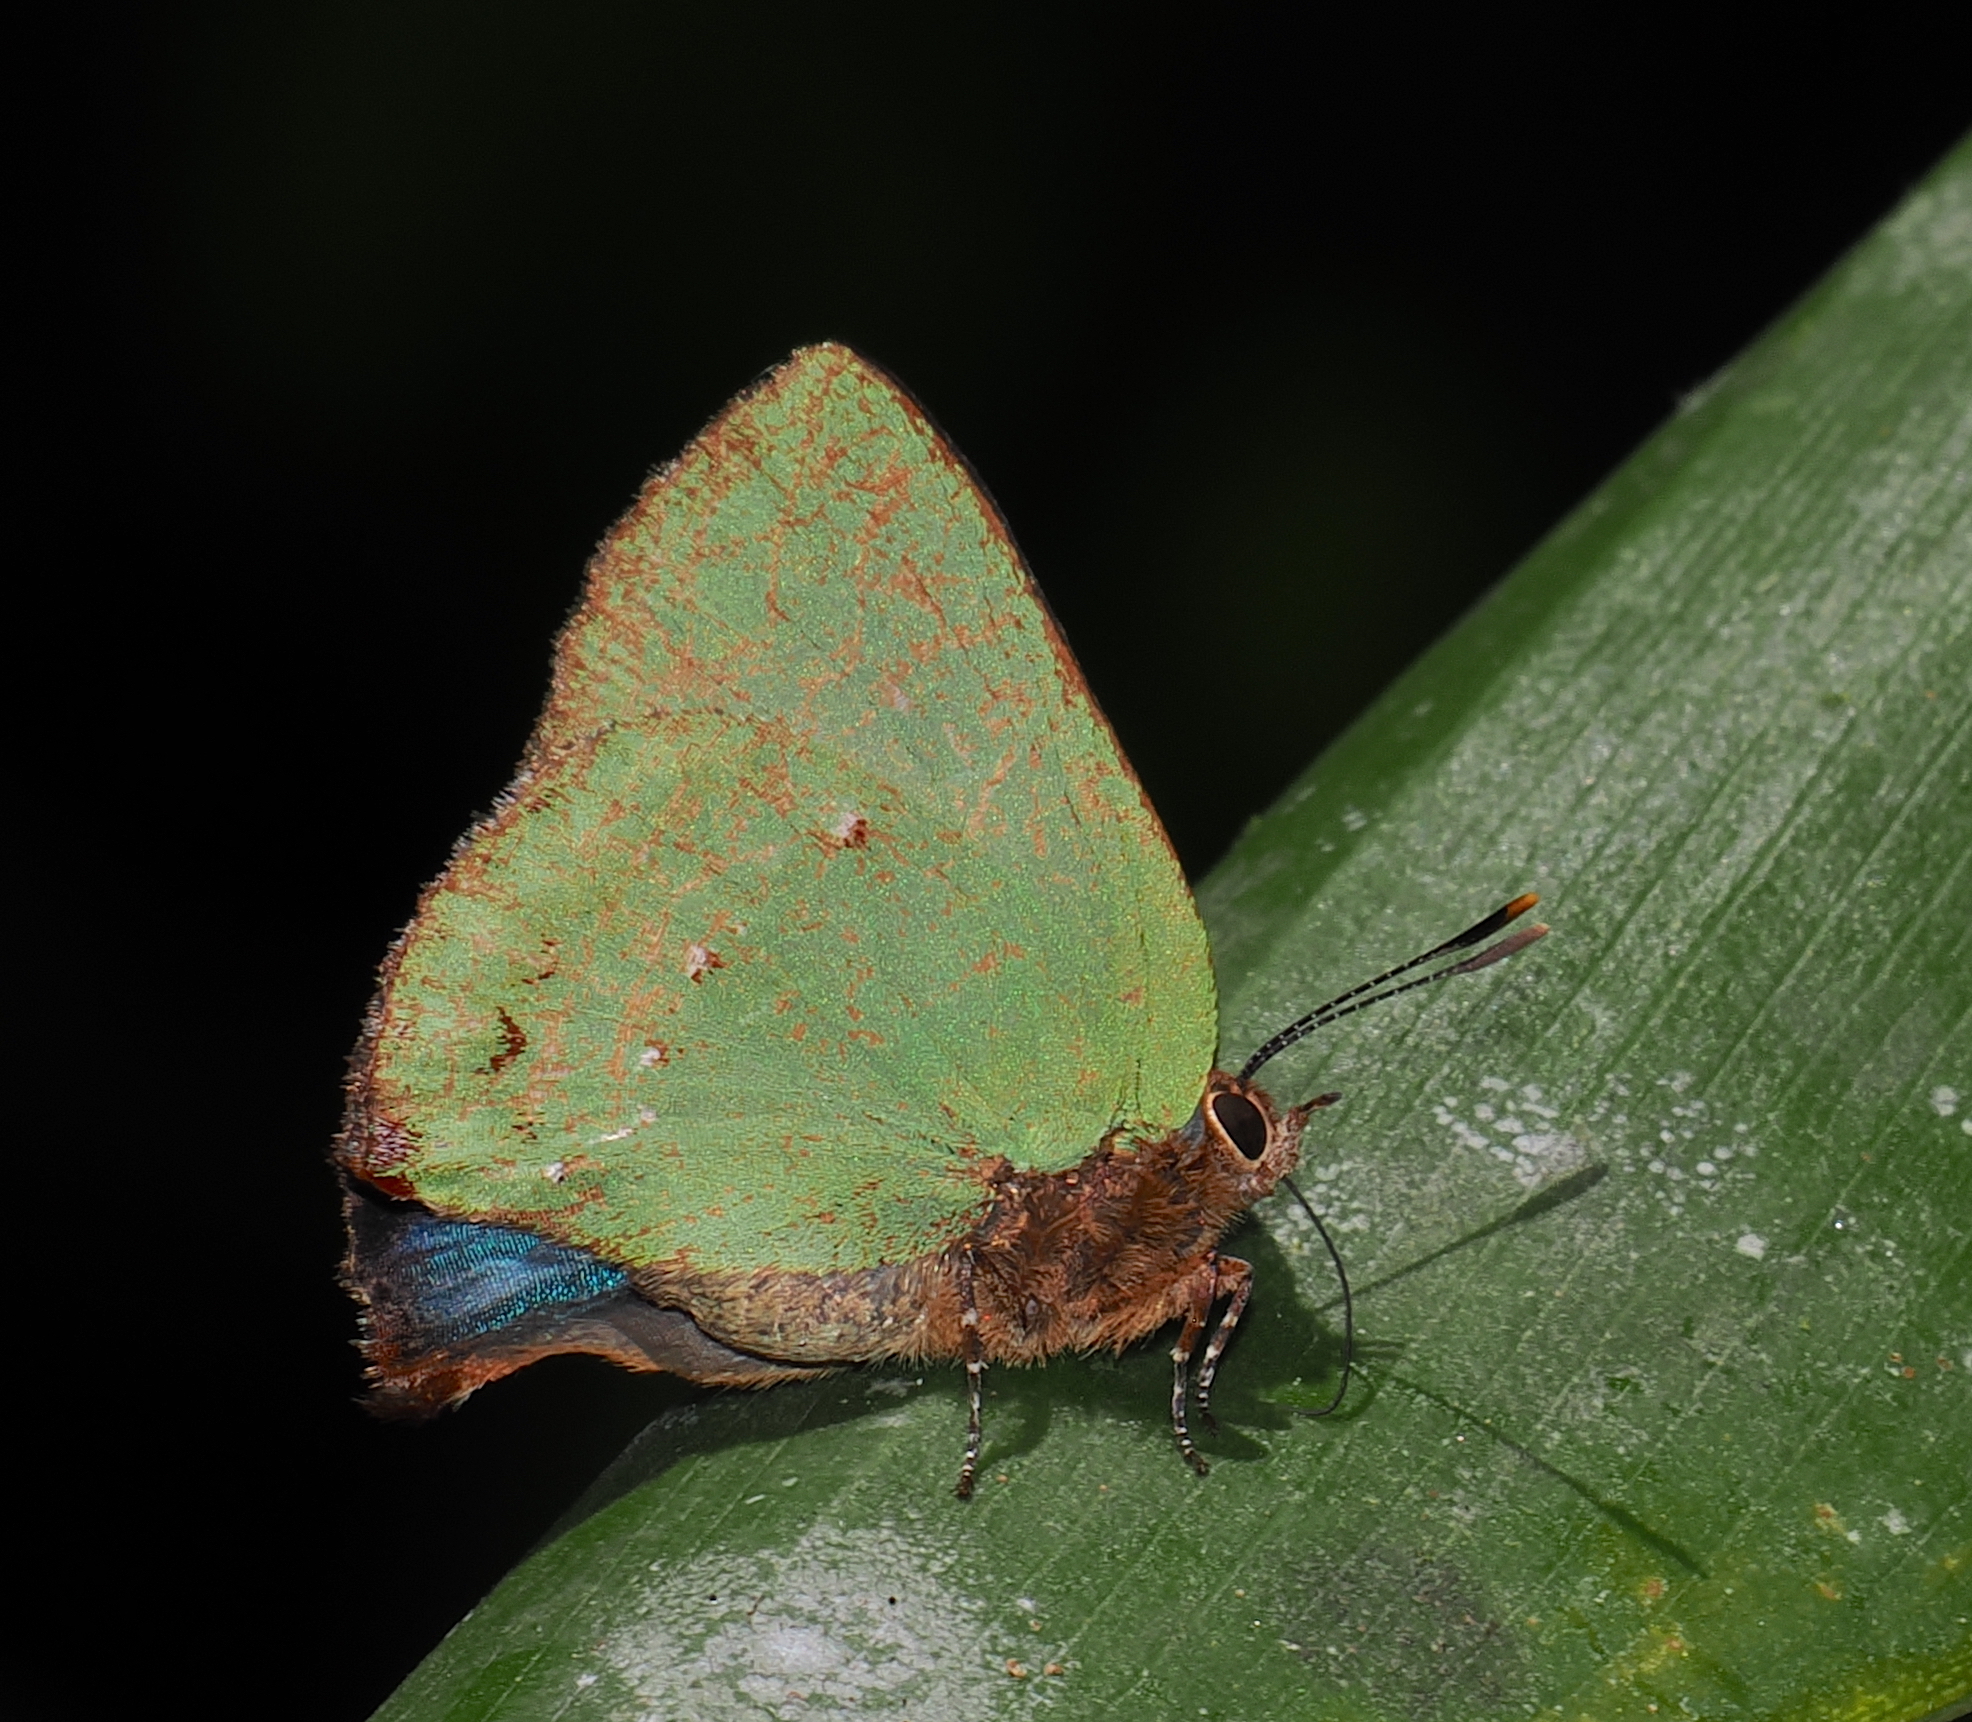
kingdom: Animalia
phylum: Arthropoda
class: Insecta
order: Lepidoptera
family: Lycaenidae
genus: Thecla
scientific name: Thecla herodotus
